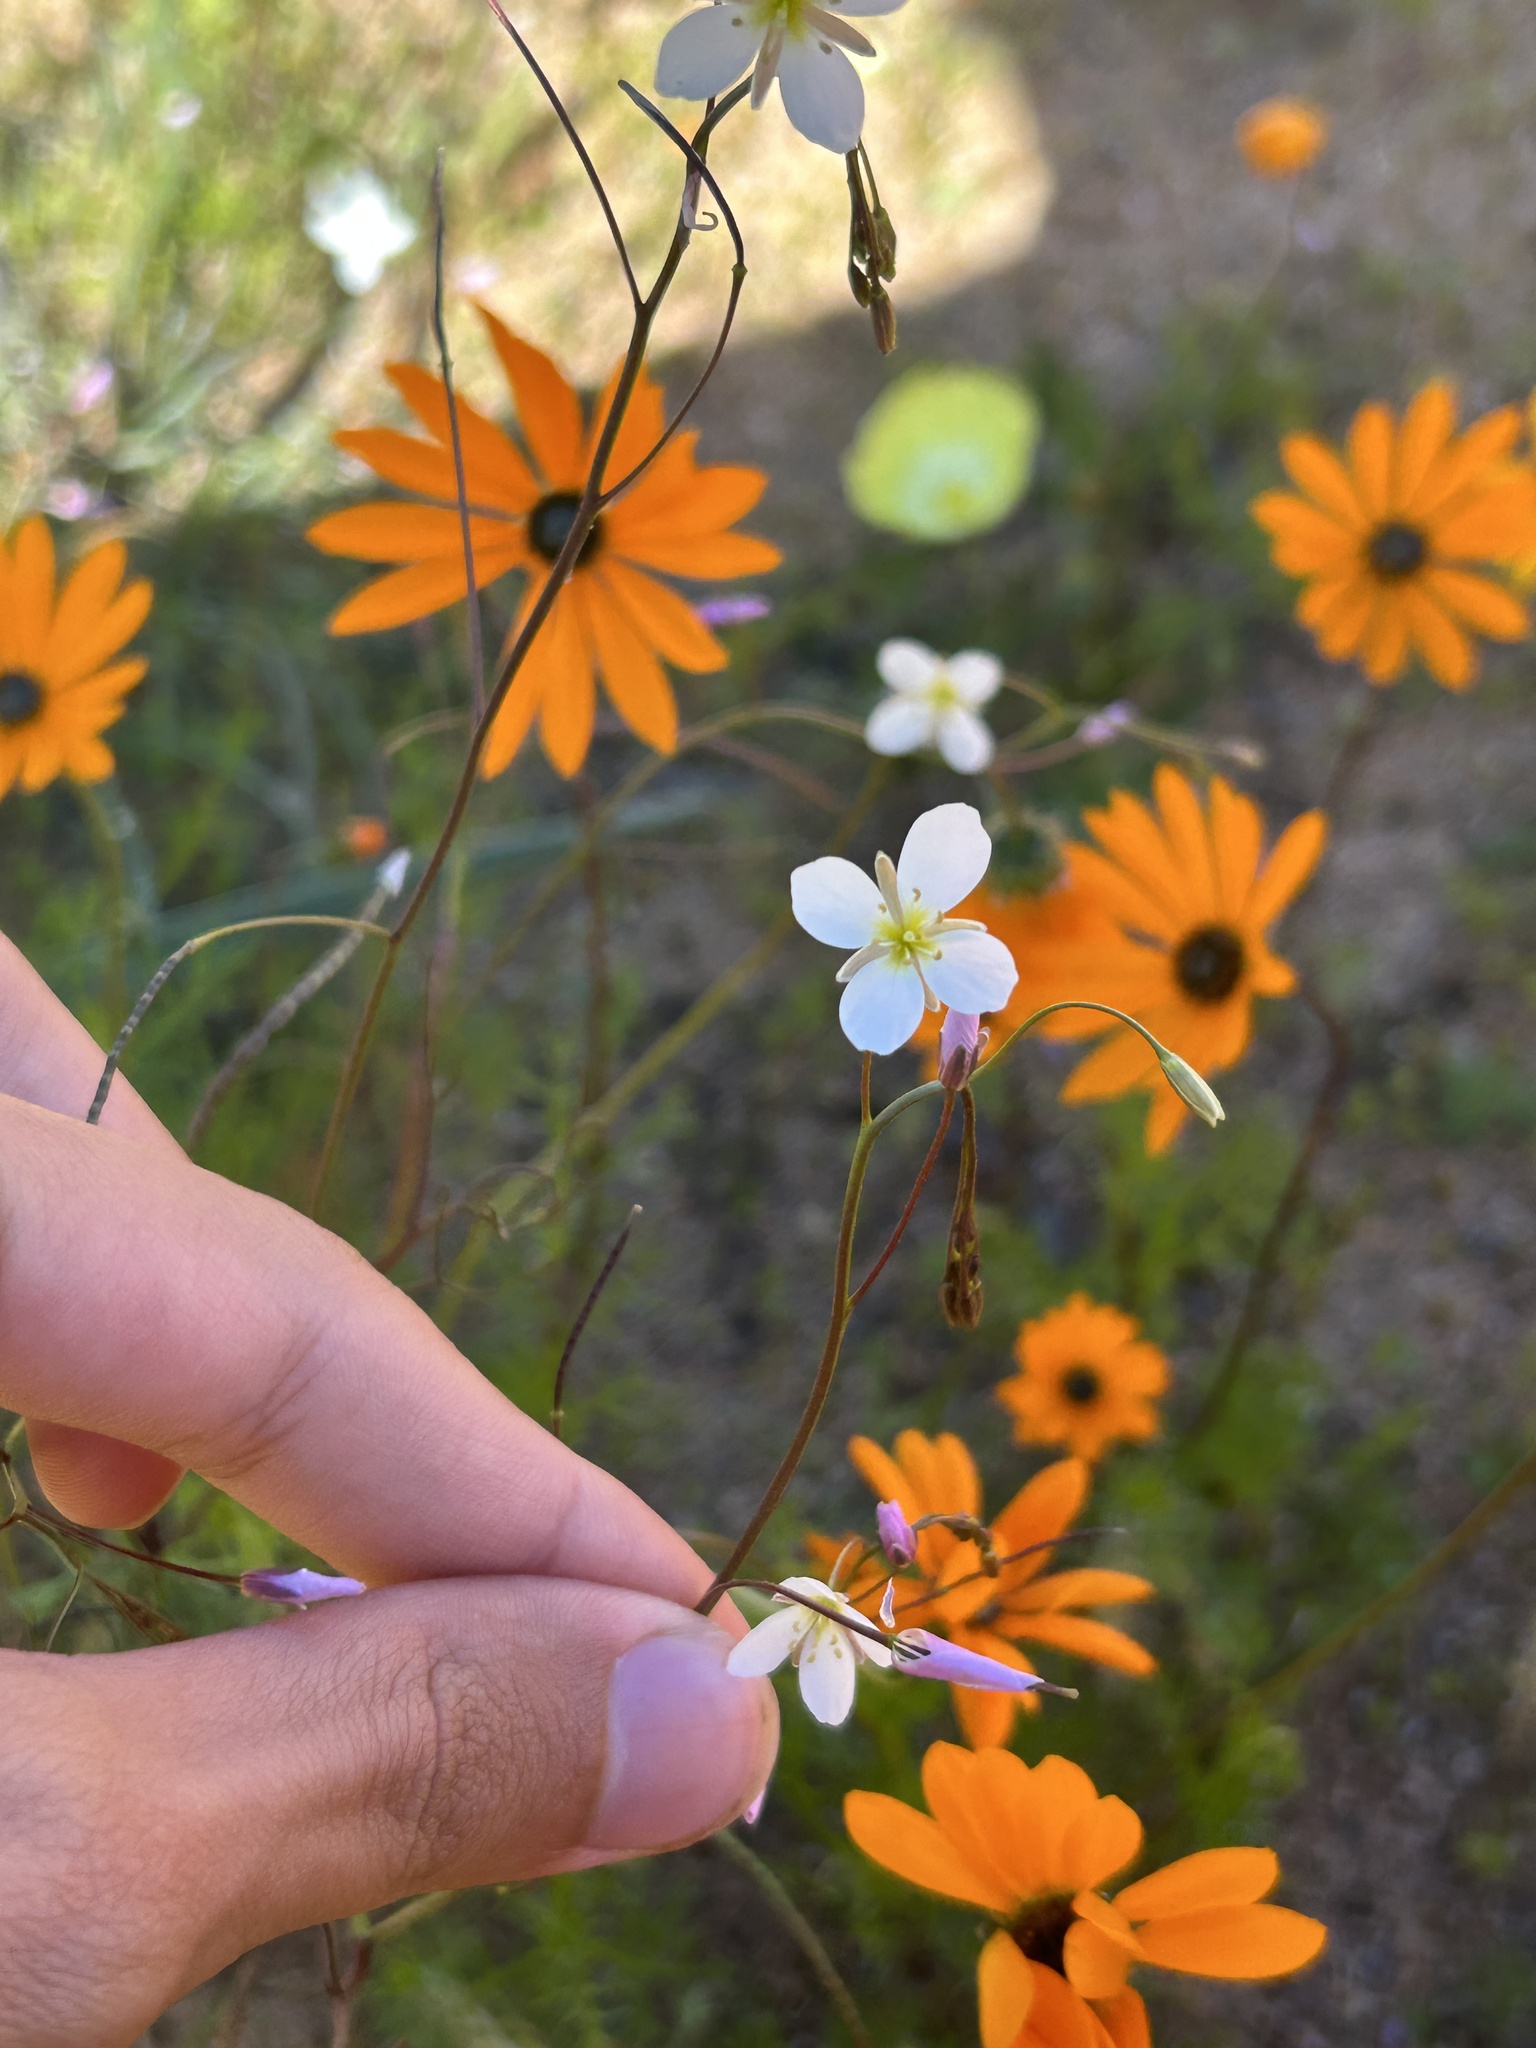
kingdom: Plantae
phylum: Tracheophyta
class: Magnoliopsida
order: Brassicales
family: Brassicaceae
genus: Heliophila
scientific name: Heliophila variabilis
